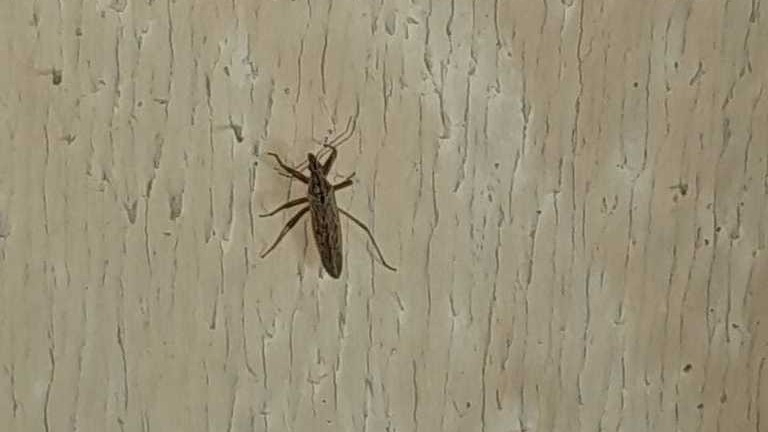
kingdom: Animalia
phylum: Arthropoda
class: Insecta
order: Hemiptera
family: Nabidae
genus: Nabis
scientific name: Nabis
